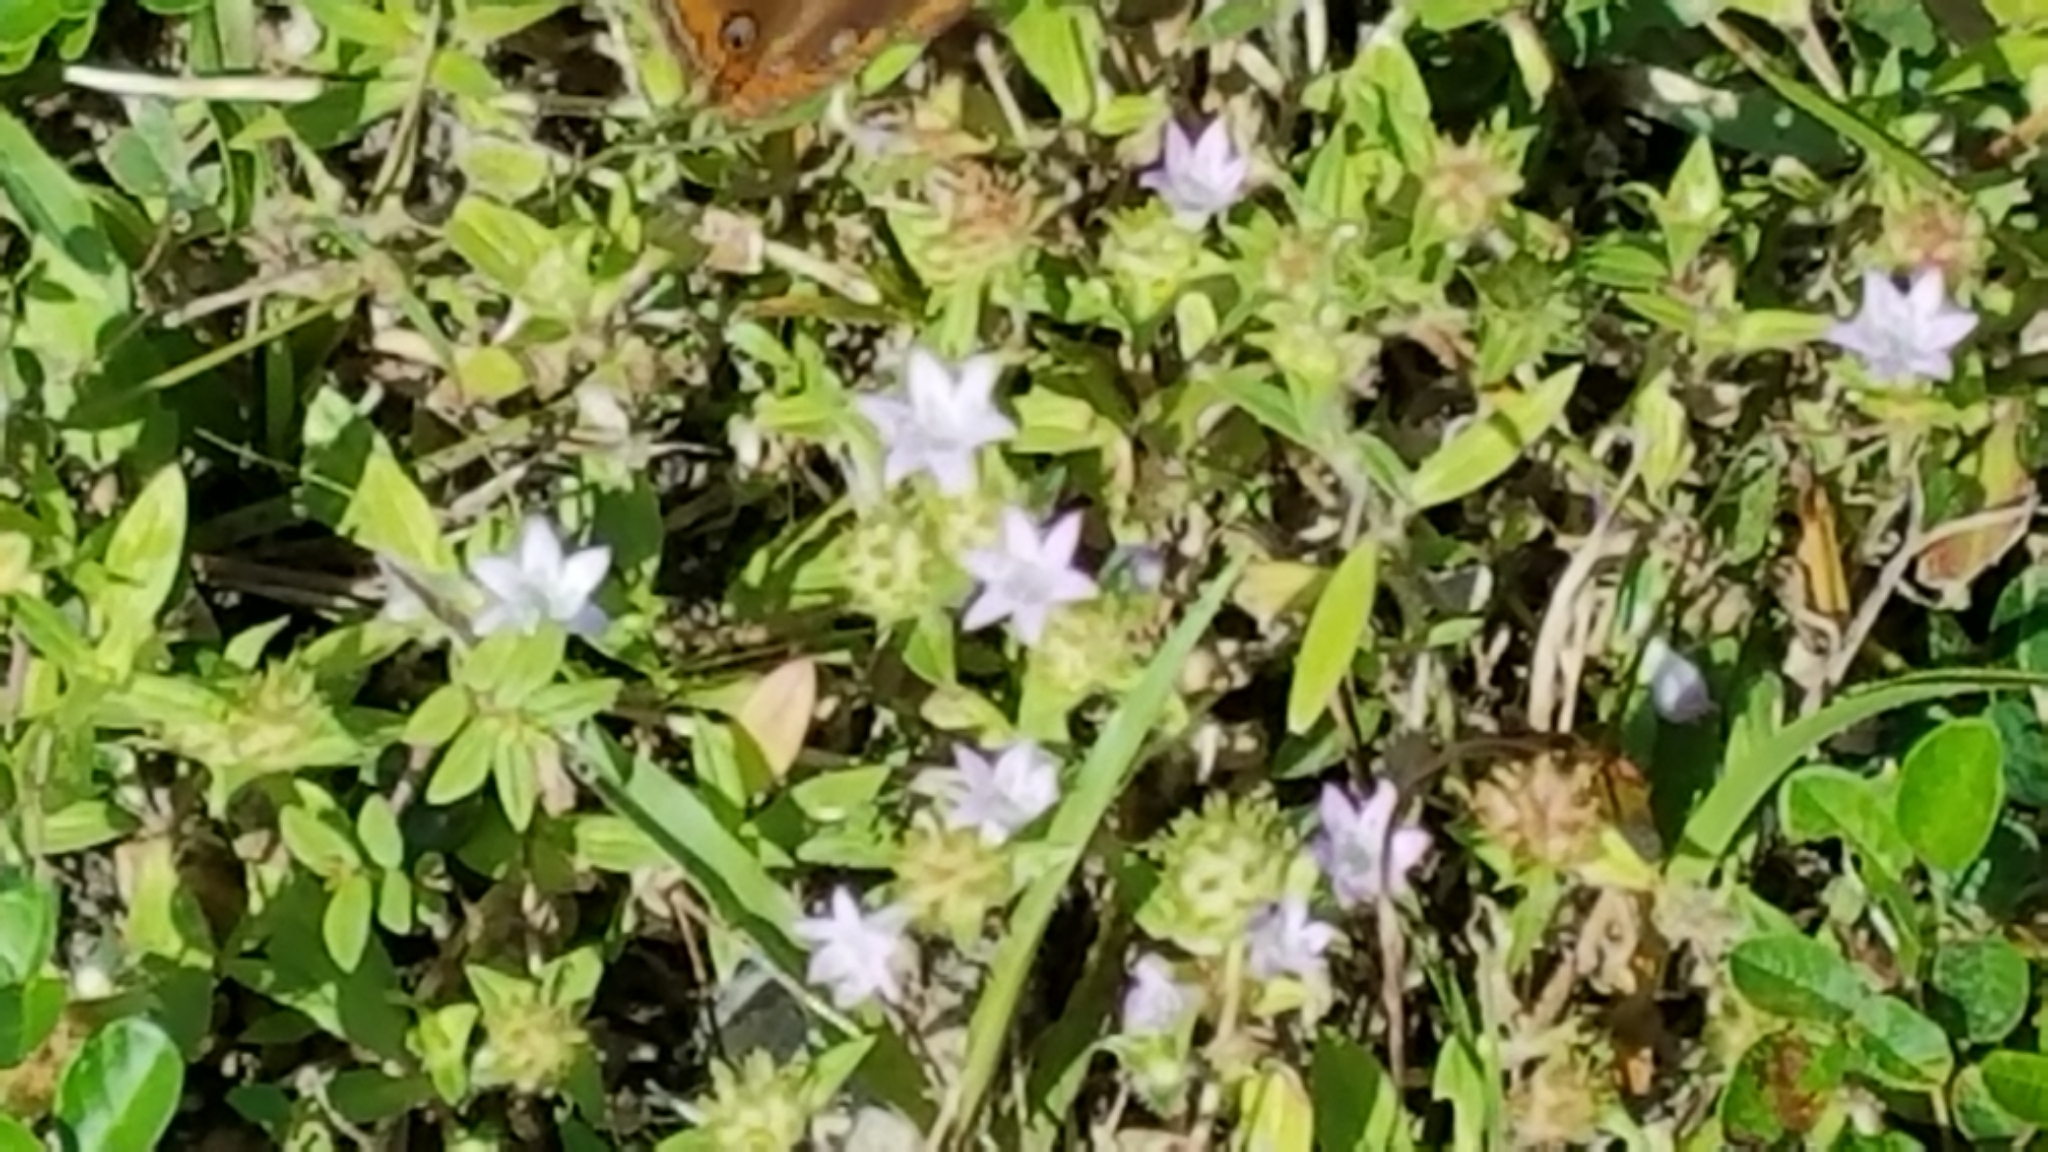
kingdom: Plantae
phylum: Tracheophyta
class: Magnoliopsida
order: Gentianales
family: Rubiaceae
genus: Richardia
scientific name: Richardia grandiflora
